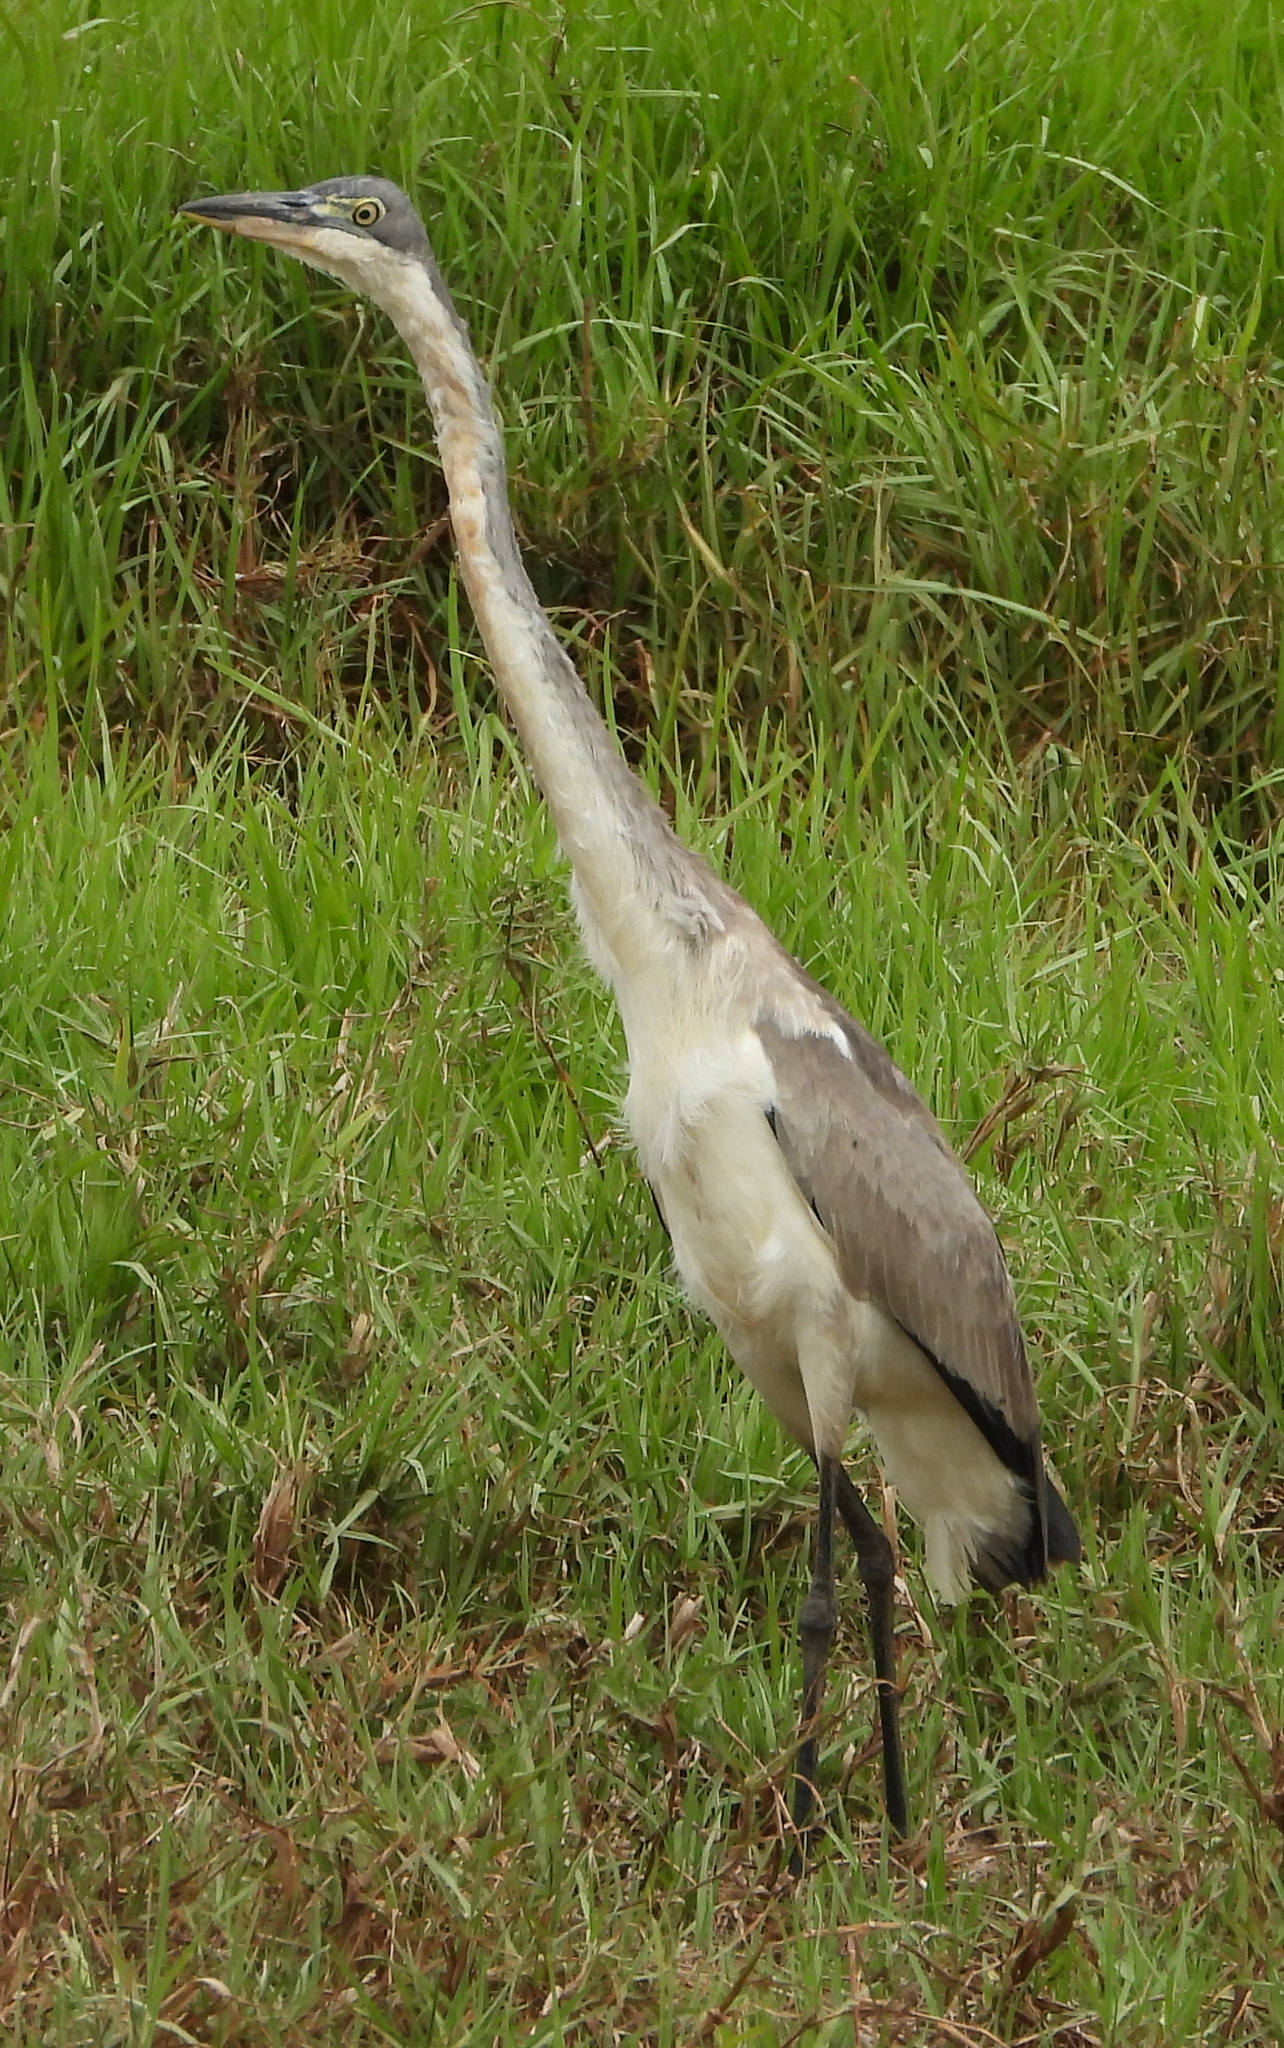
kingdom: Animalia
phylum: Chordata
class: Aves
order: Pelecaniformes
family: Ardeidae
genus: Ardea
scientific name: Ardea melanocephala
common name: Black-headed heron
